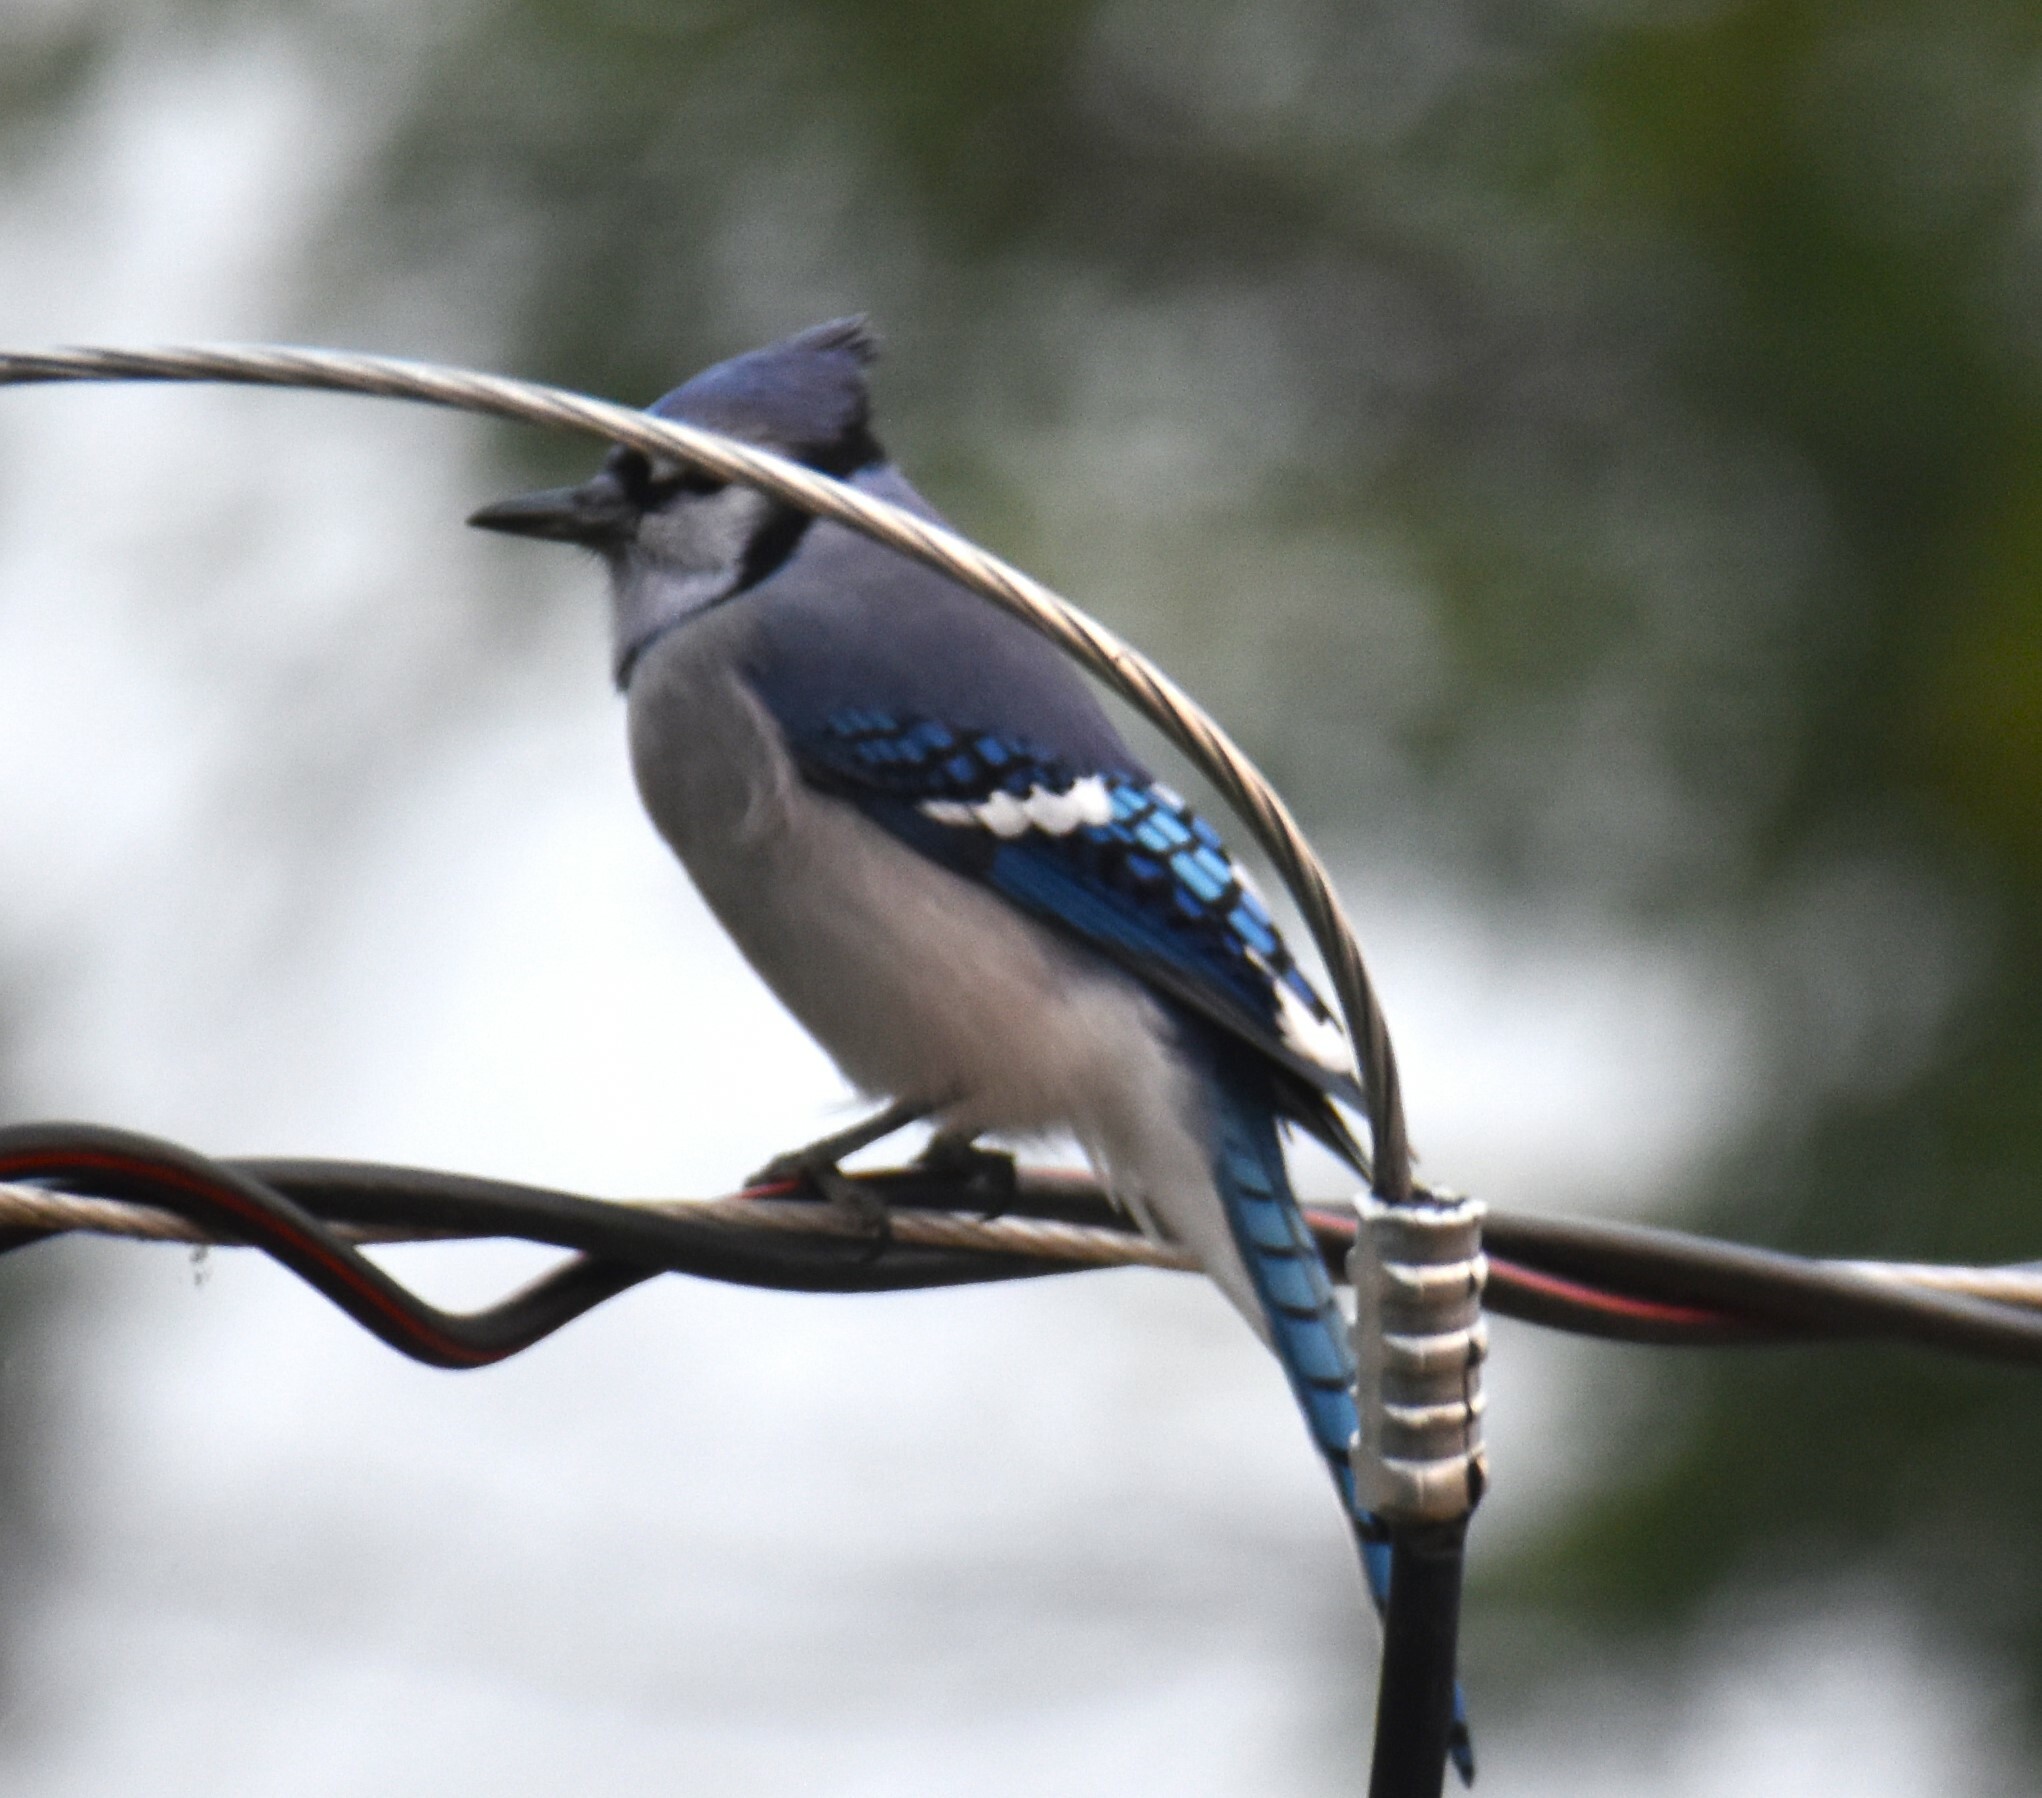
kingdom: Animalia
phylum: Chordata
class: Aves
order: Passeriformes
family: Corvidae
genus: Cyanocitta
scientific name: Cyanocitta cristata
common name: Blue jay
